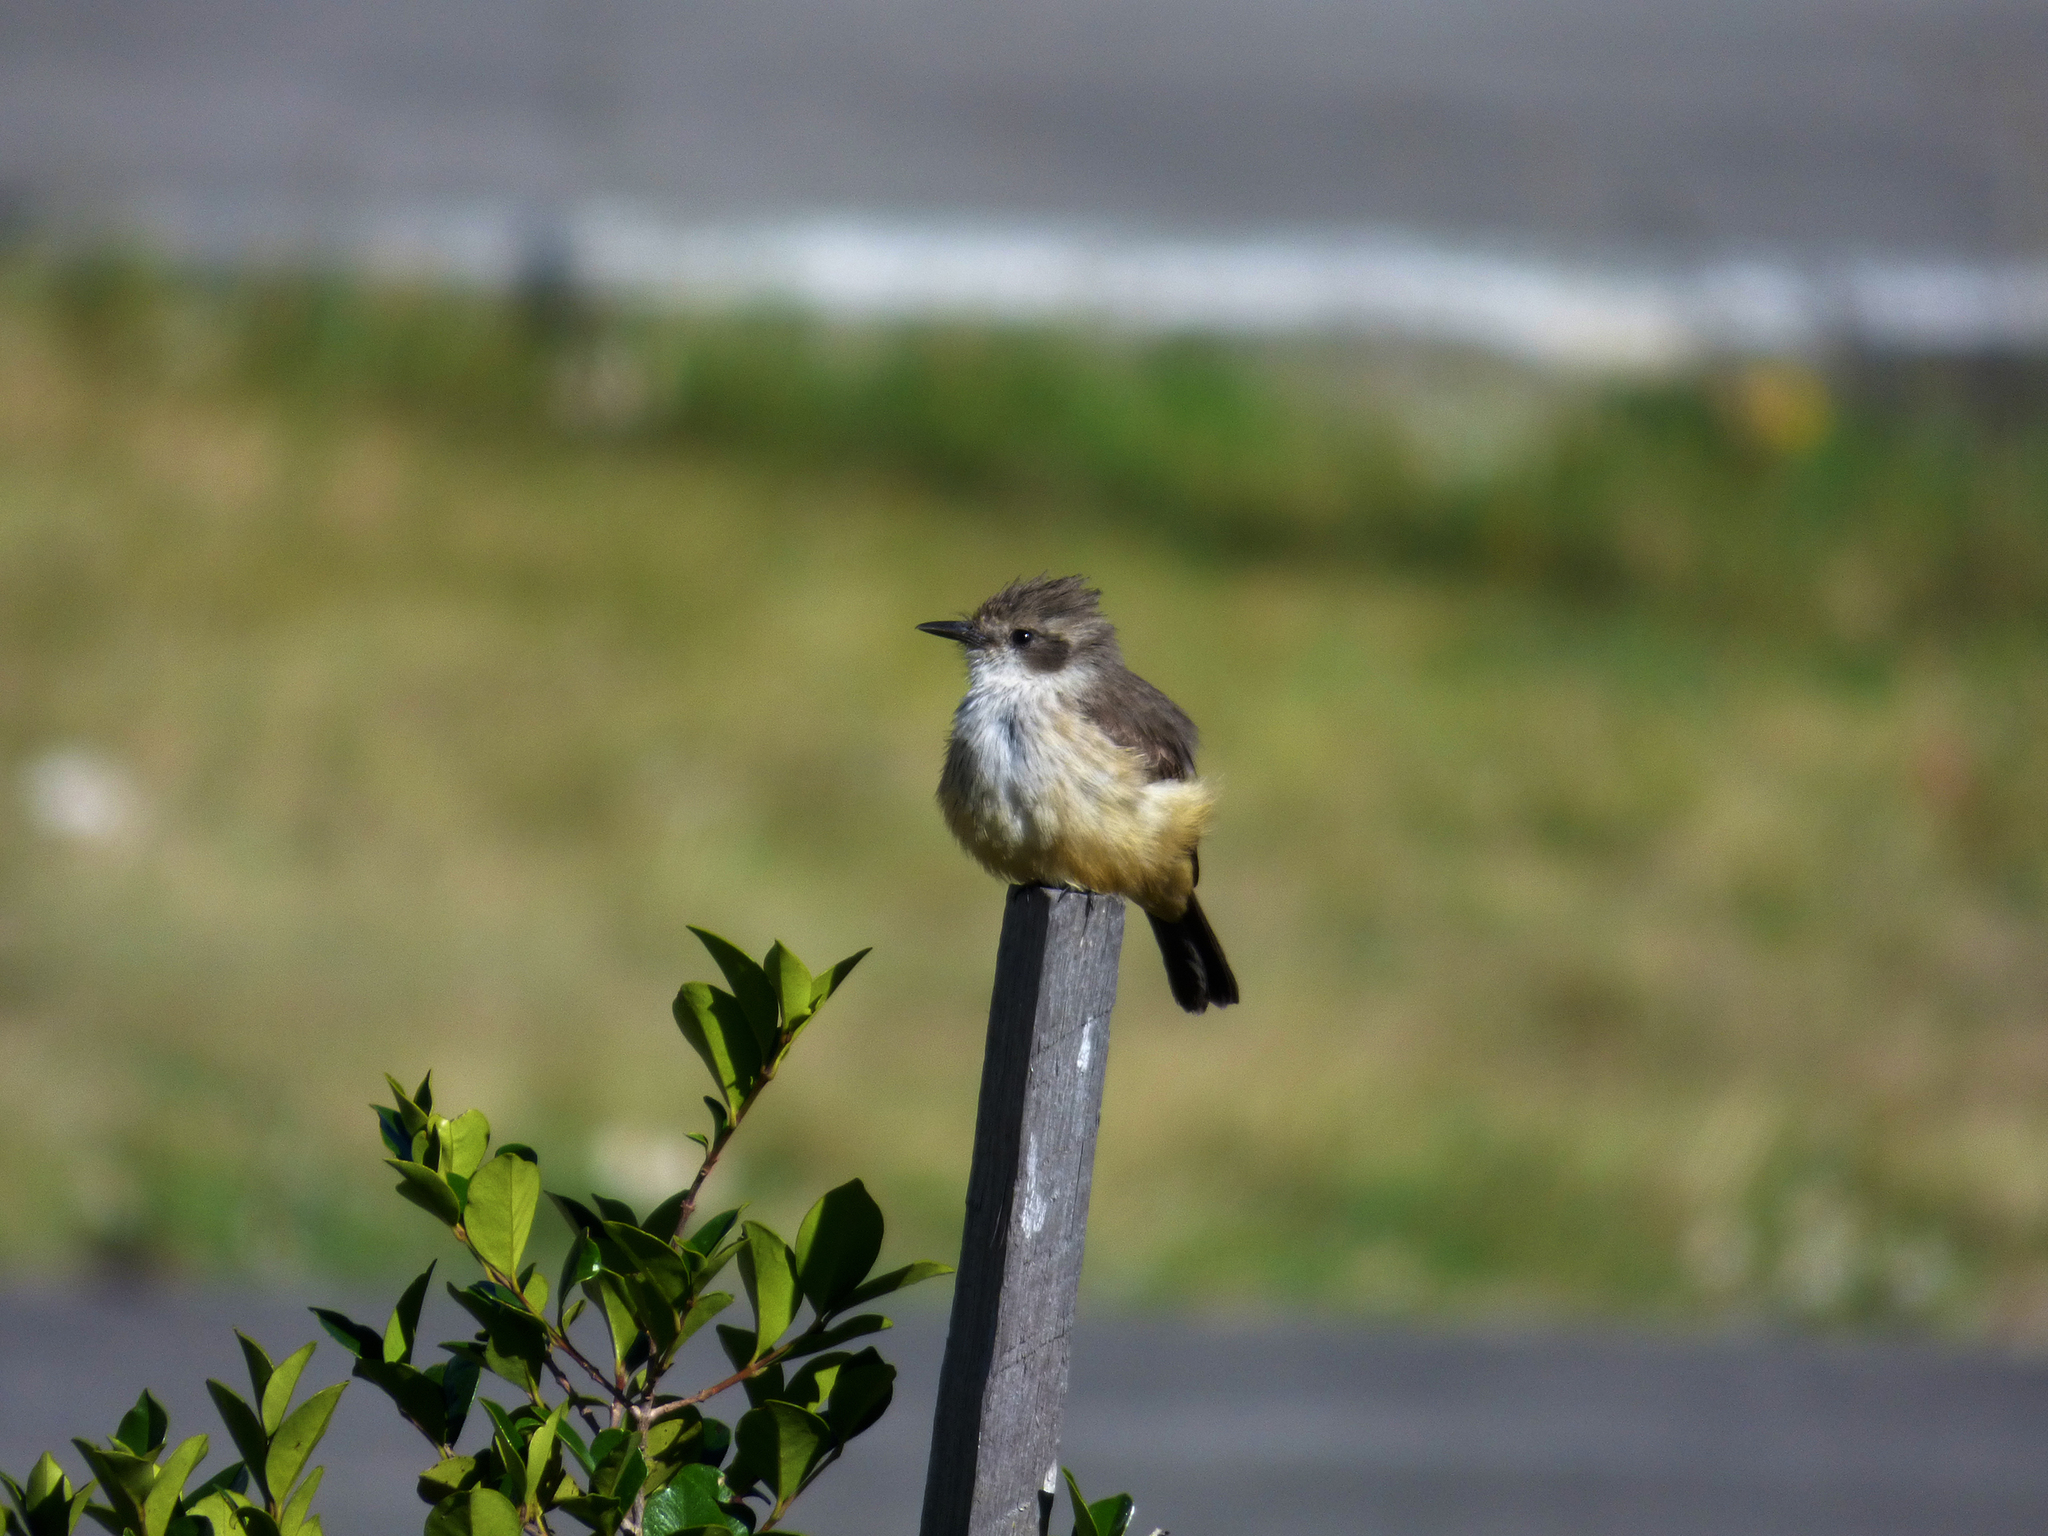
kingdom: Animalia
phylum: Chordata
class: Aves
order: Passeriformes
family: Tyrannidae
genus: Pyrocephalus
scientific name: Pyrocephalus rubinus
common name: Vermilion flycatcher
